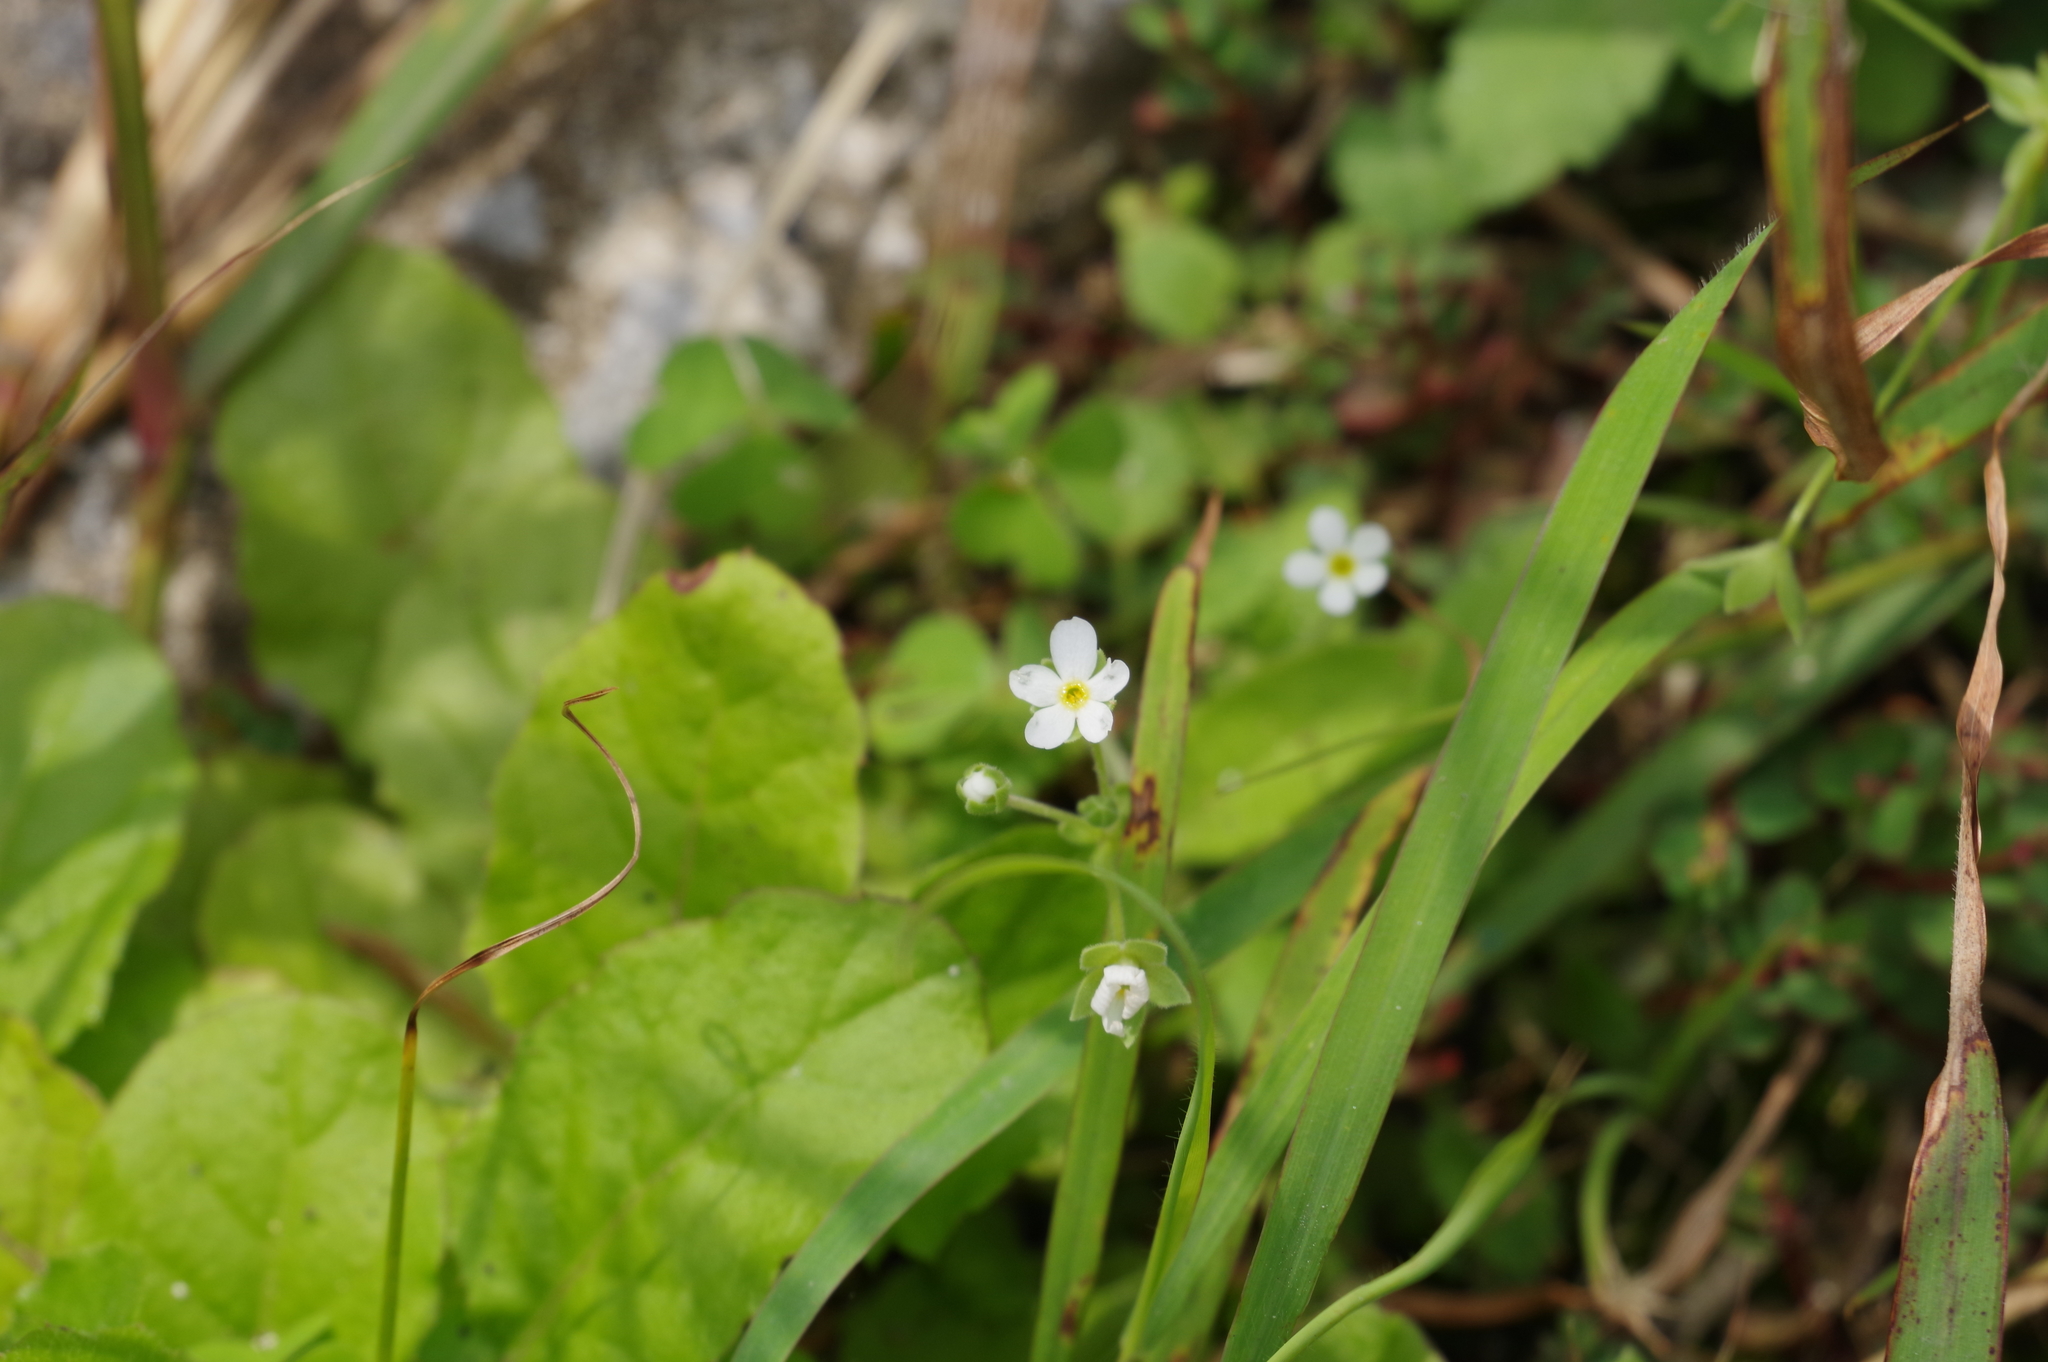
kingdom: Plantae
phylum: Tracheophyta
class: Magnoliopsida
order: Ericales
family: Primulaceae
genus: Androsace
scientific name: Androsace umbellata
